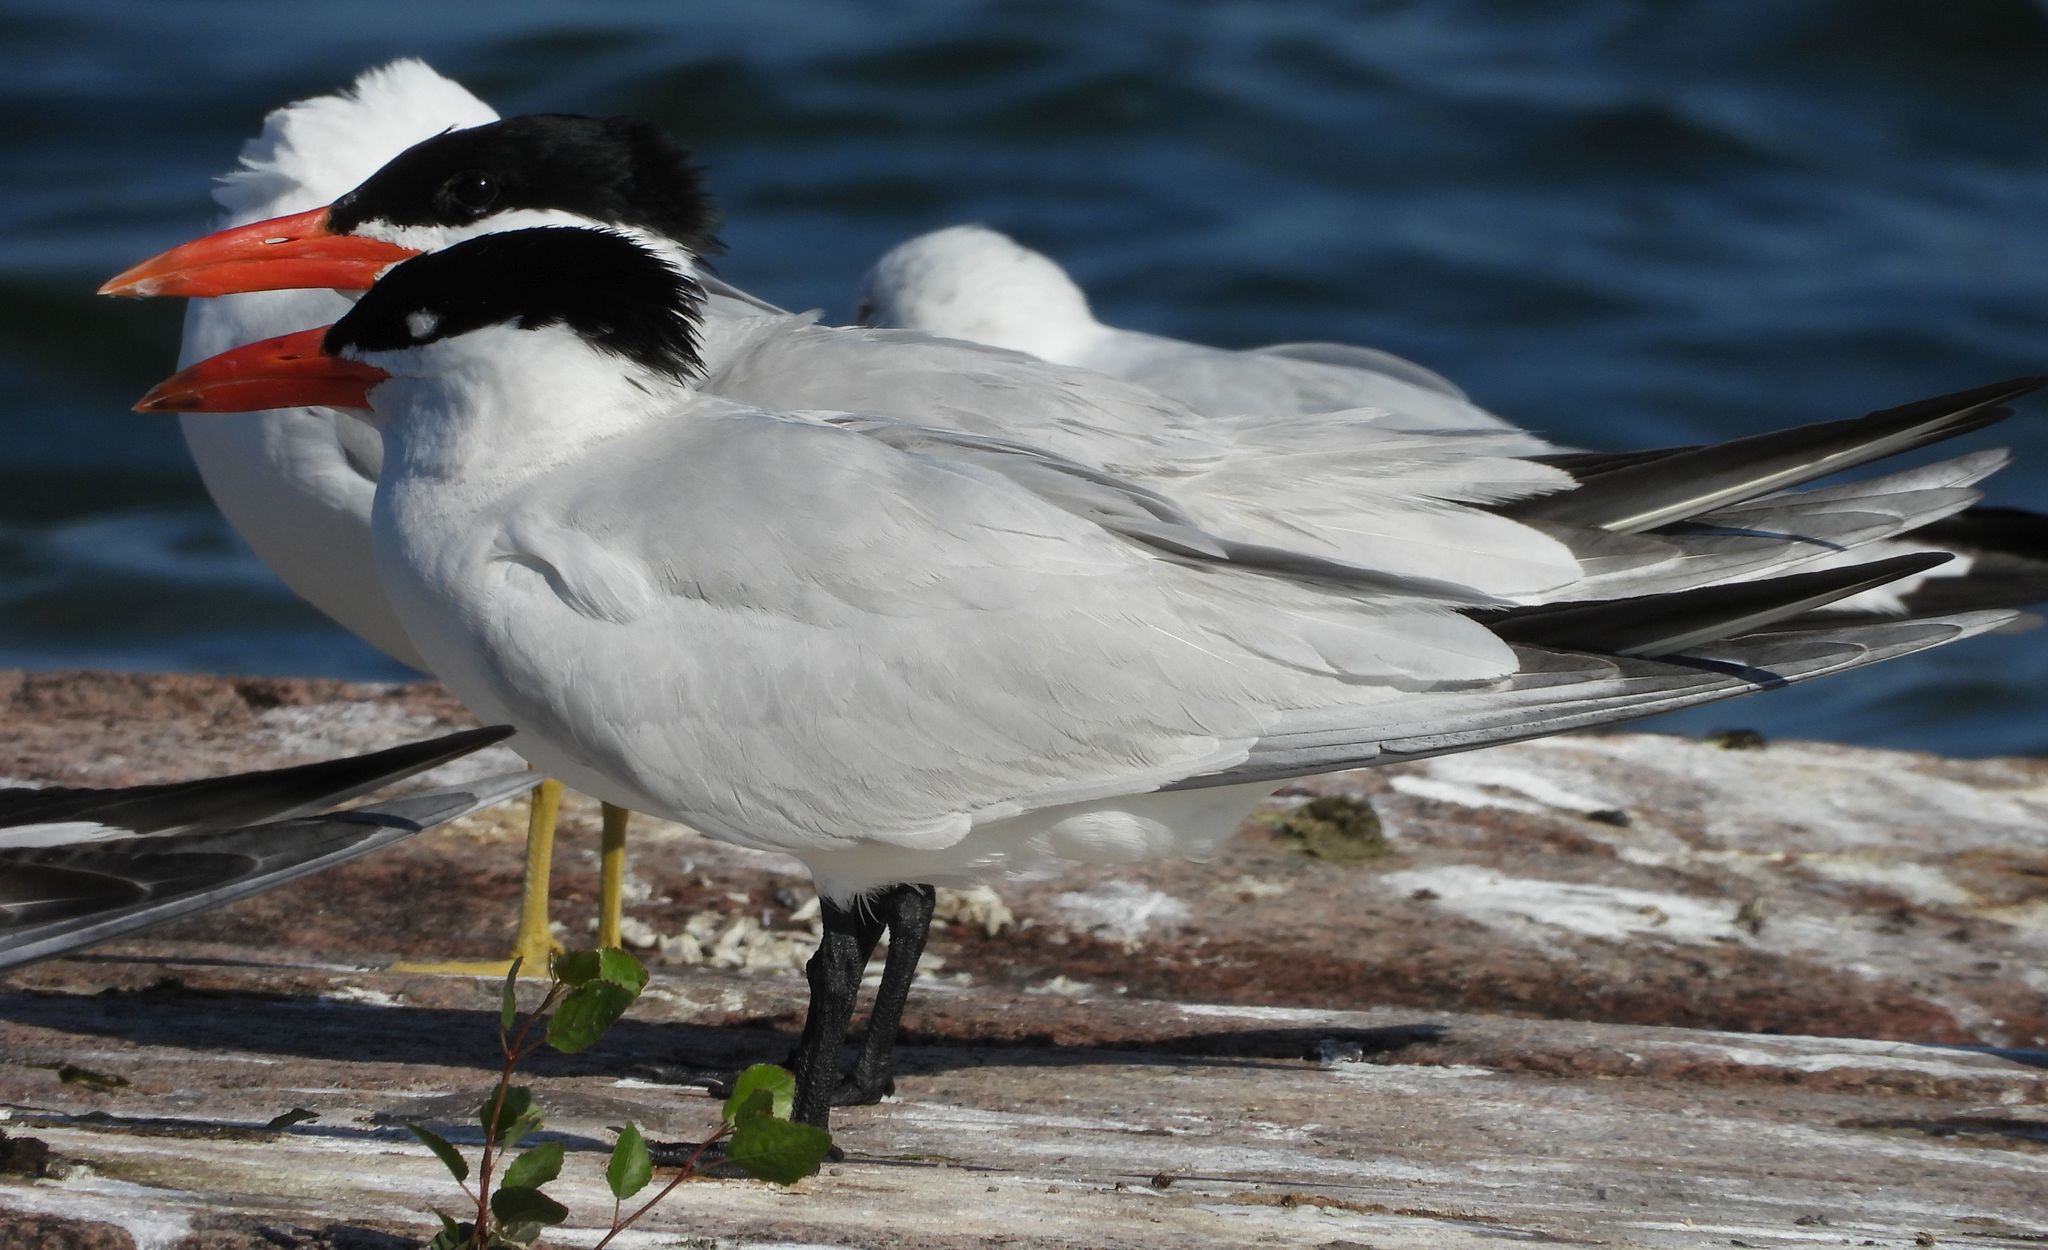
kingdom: Animalia
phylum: Chordata
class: Aves
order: Charadriiformes
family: Laridae
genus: Hydroprogne
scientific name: Hydroprogne caspia
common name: Caspian tern
